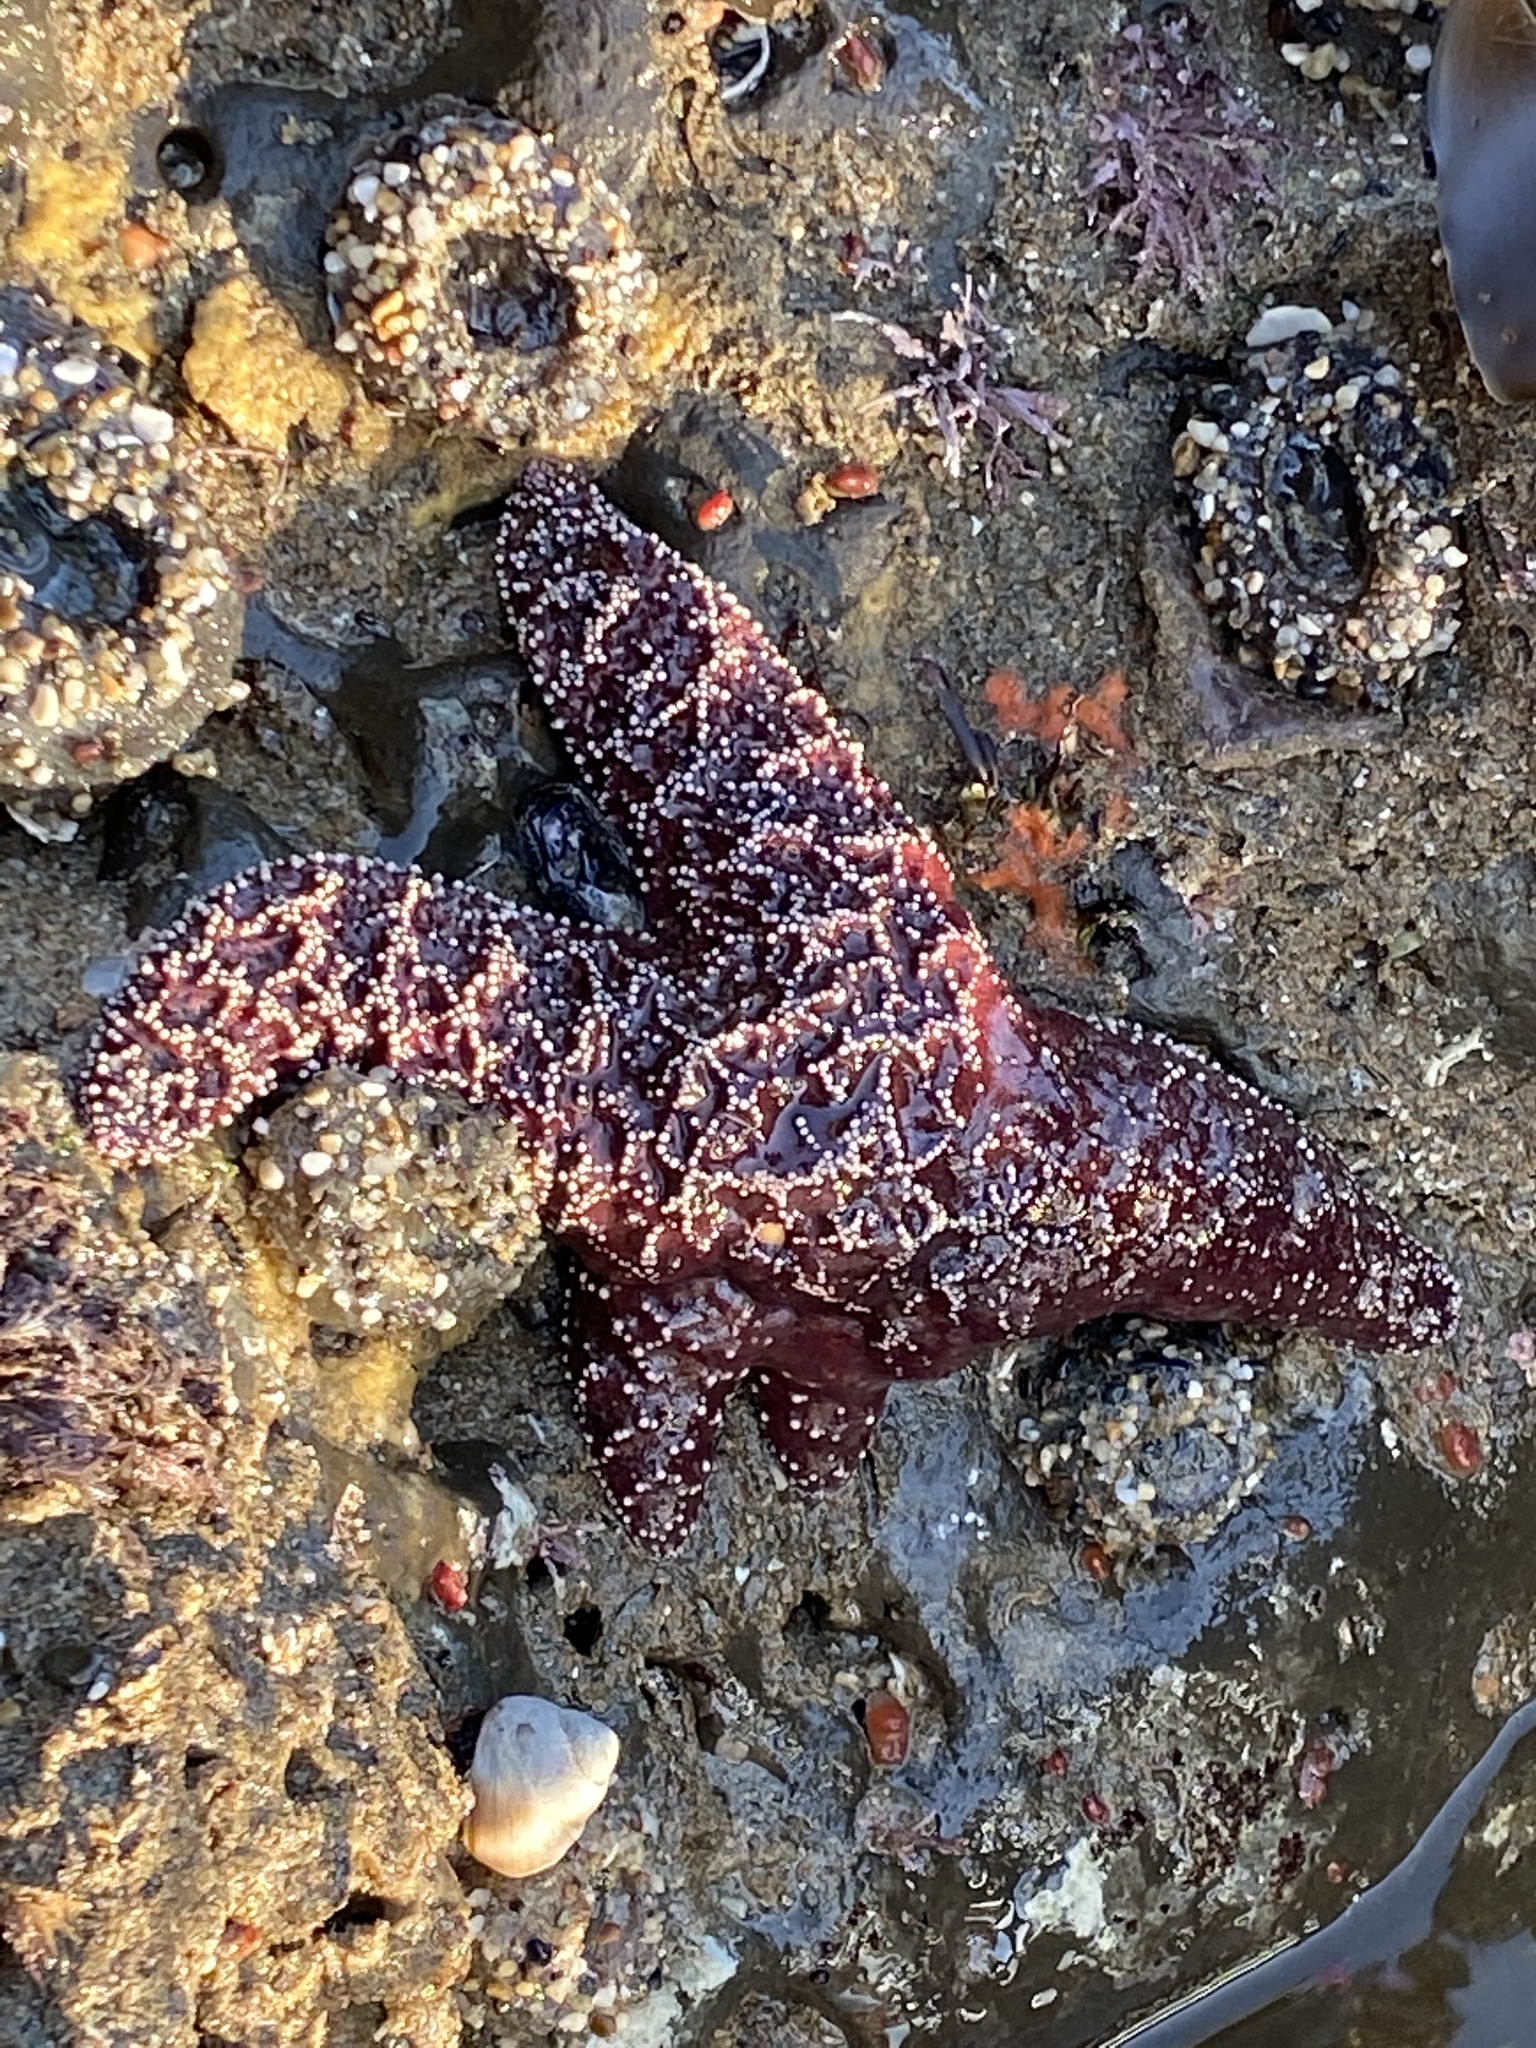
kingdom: Animalia
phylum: Echinodermata
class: Asteroidea
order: Forcipulatida
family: Asteriidae
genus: Pisaster
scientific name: Pisaster ochraceus
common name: Ochre stars
